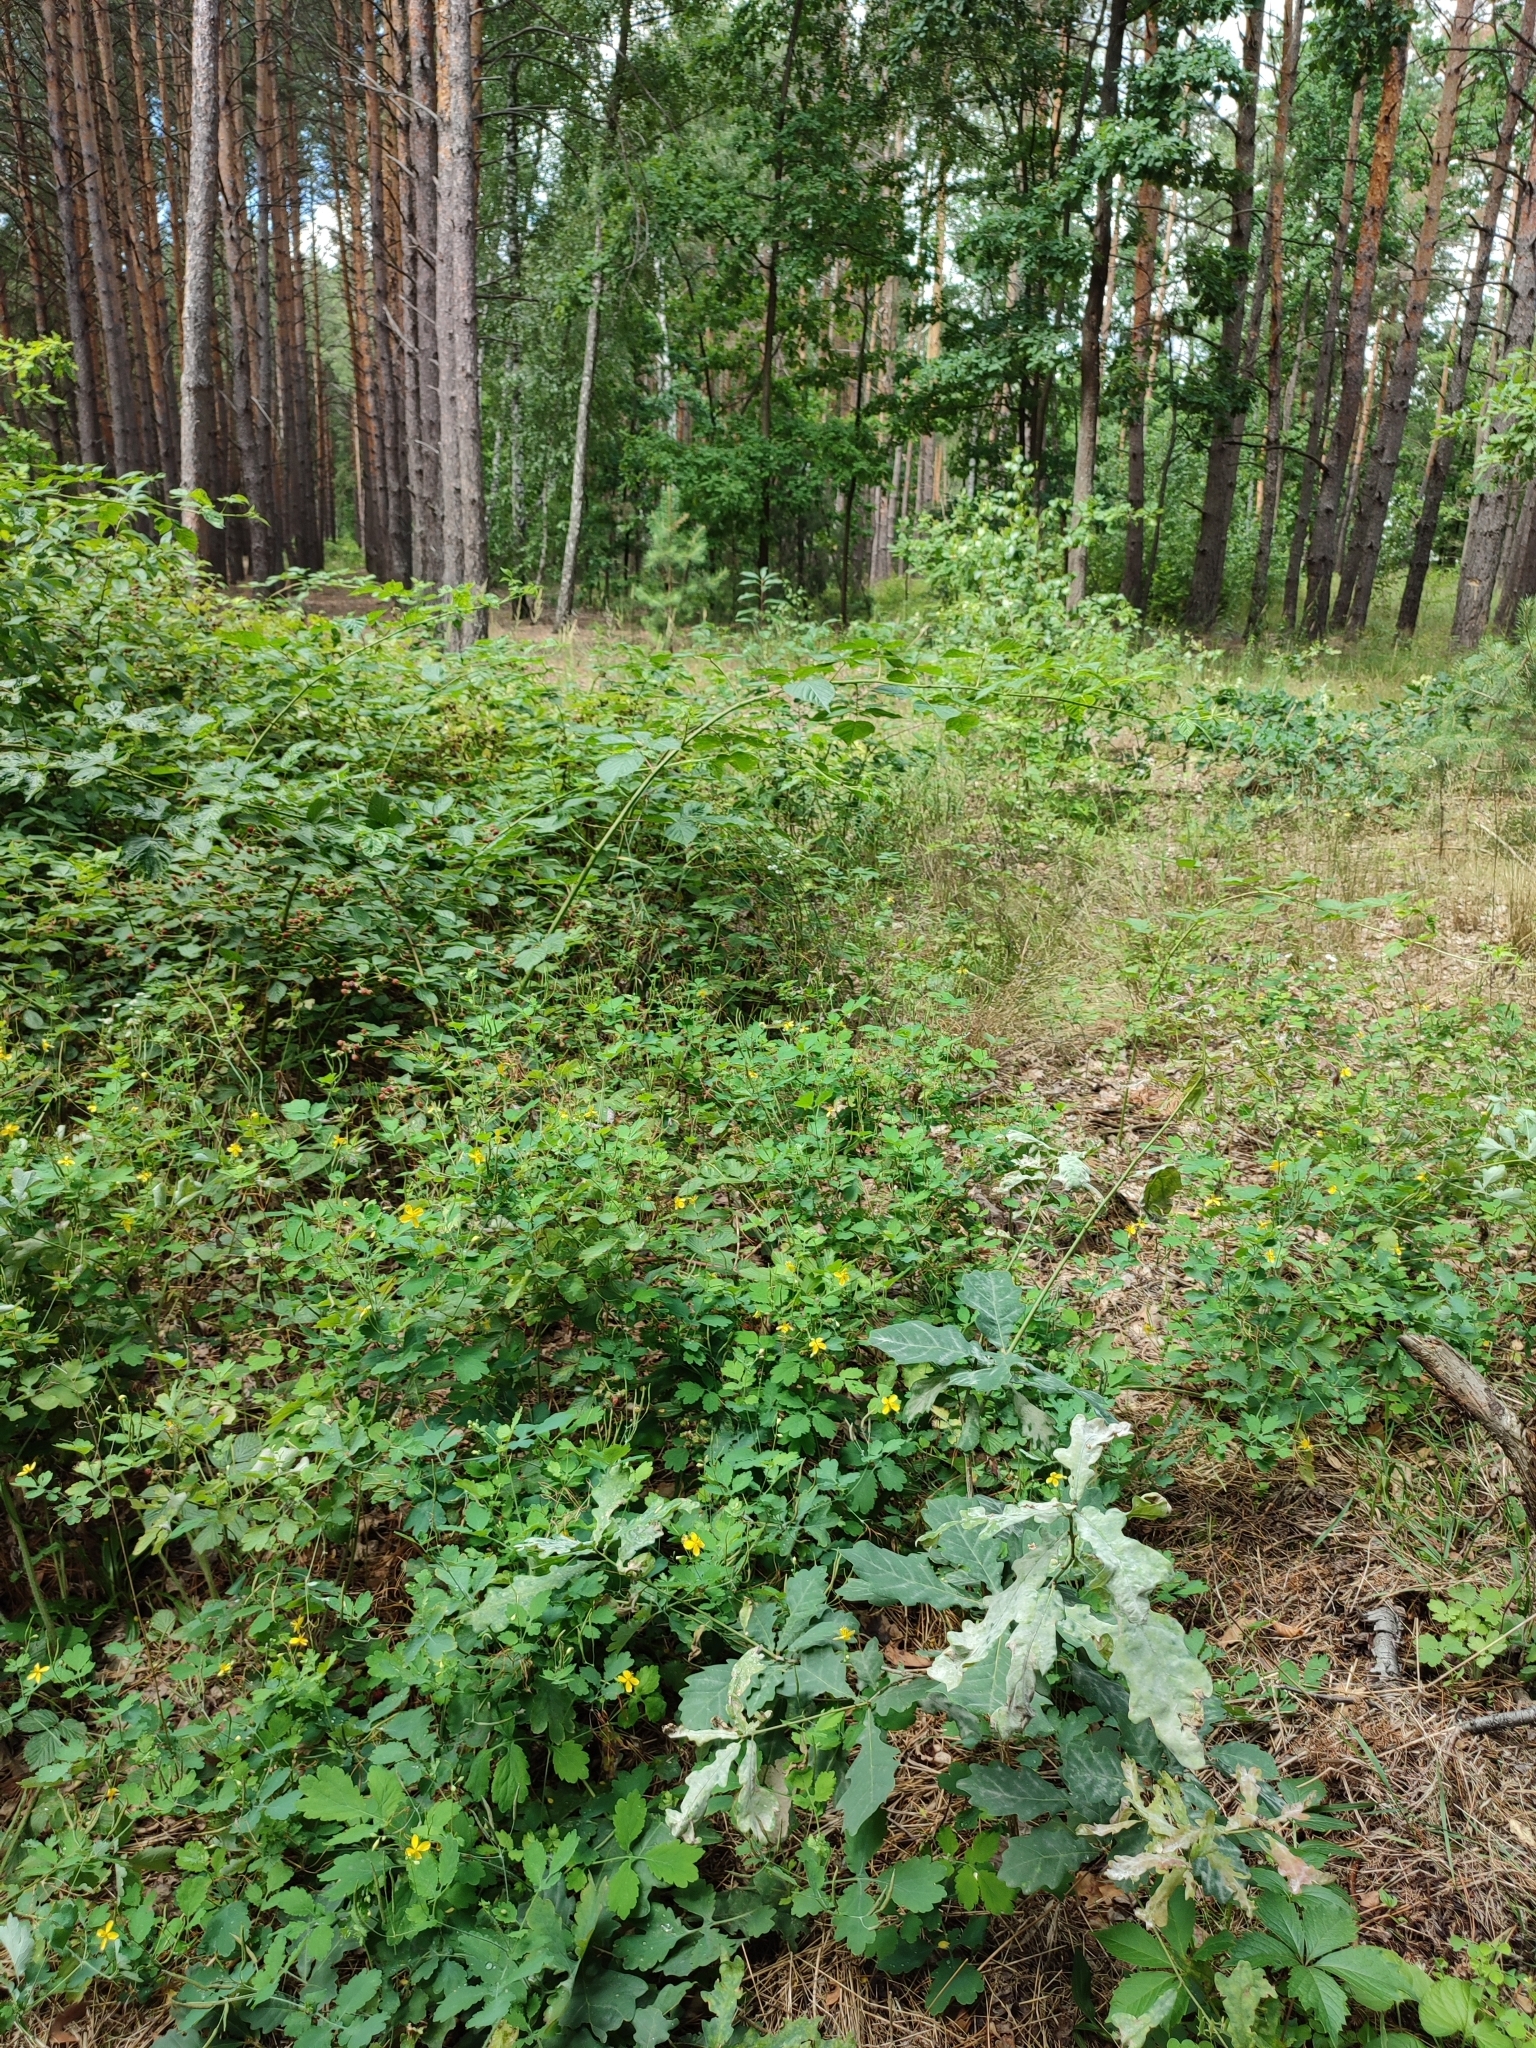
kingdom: Plantae
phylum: Tracheophyta
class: Magnoliopsida
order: Fagales
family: Fagaceae
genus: Quercus
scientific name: Quercus robur
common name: Pedunculate oak
